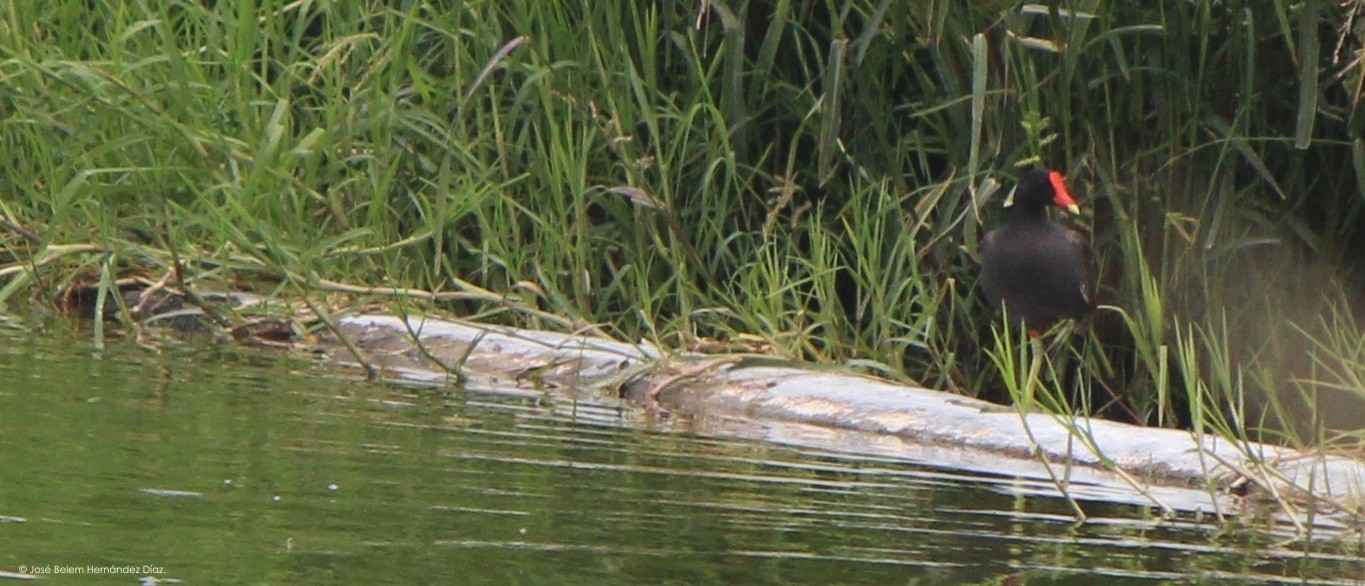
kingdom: Animalia
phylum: Chordata
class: Aves
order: Gruiformes
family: Rallidae
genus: Gallinula
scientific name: Gallinula chloropus
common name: Common moorhen
